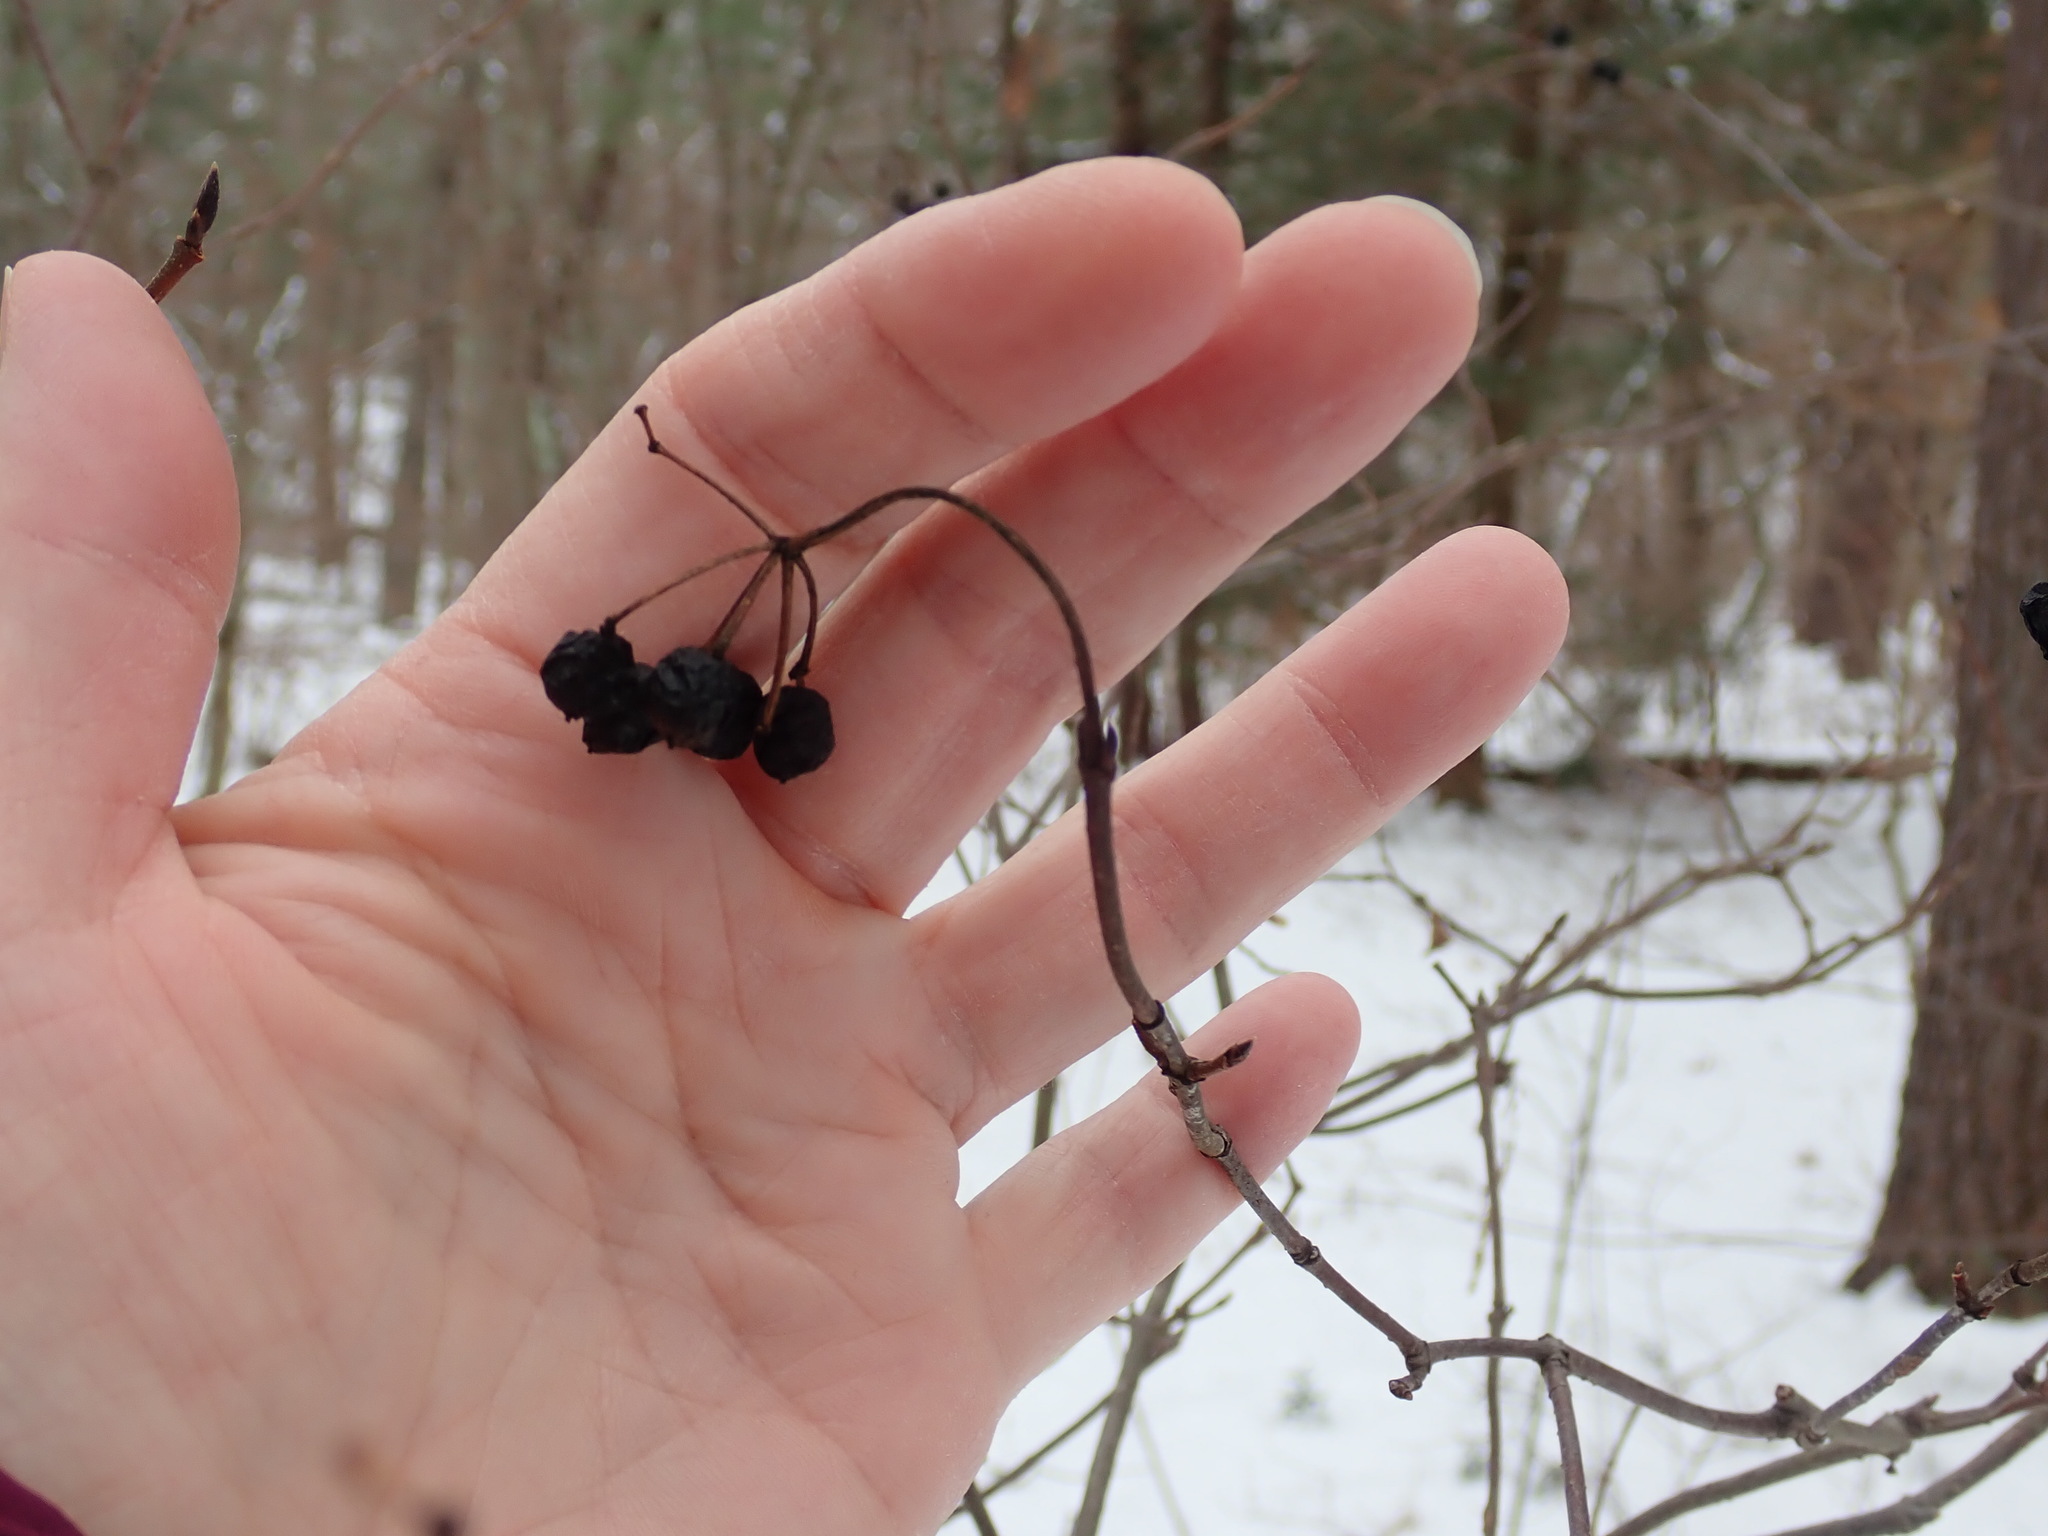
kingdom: Plantae
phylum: Tracheophyta
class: Magnoliopsida
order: Dipsacales
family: Viburnaceae
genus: Viburnum
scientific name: Viburnum acerifolium
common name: Dockmackie
